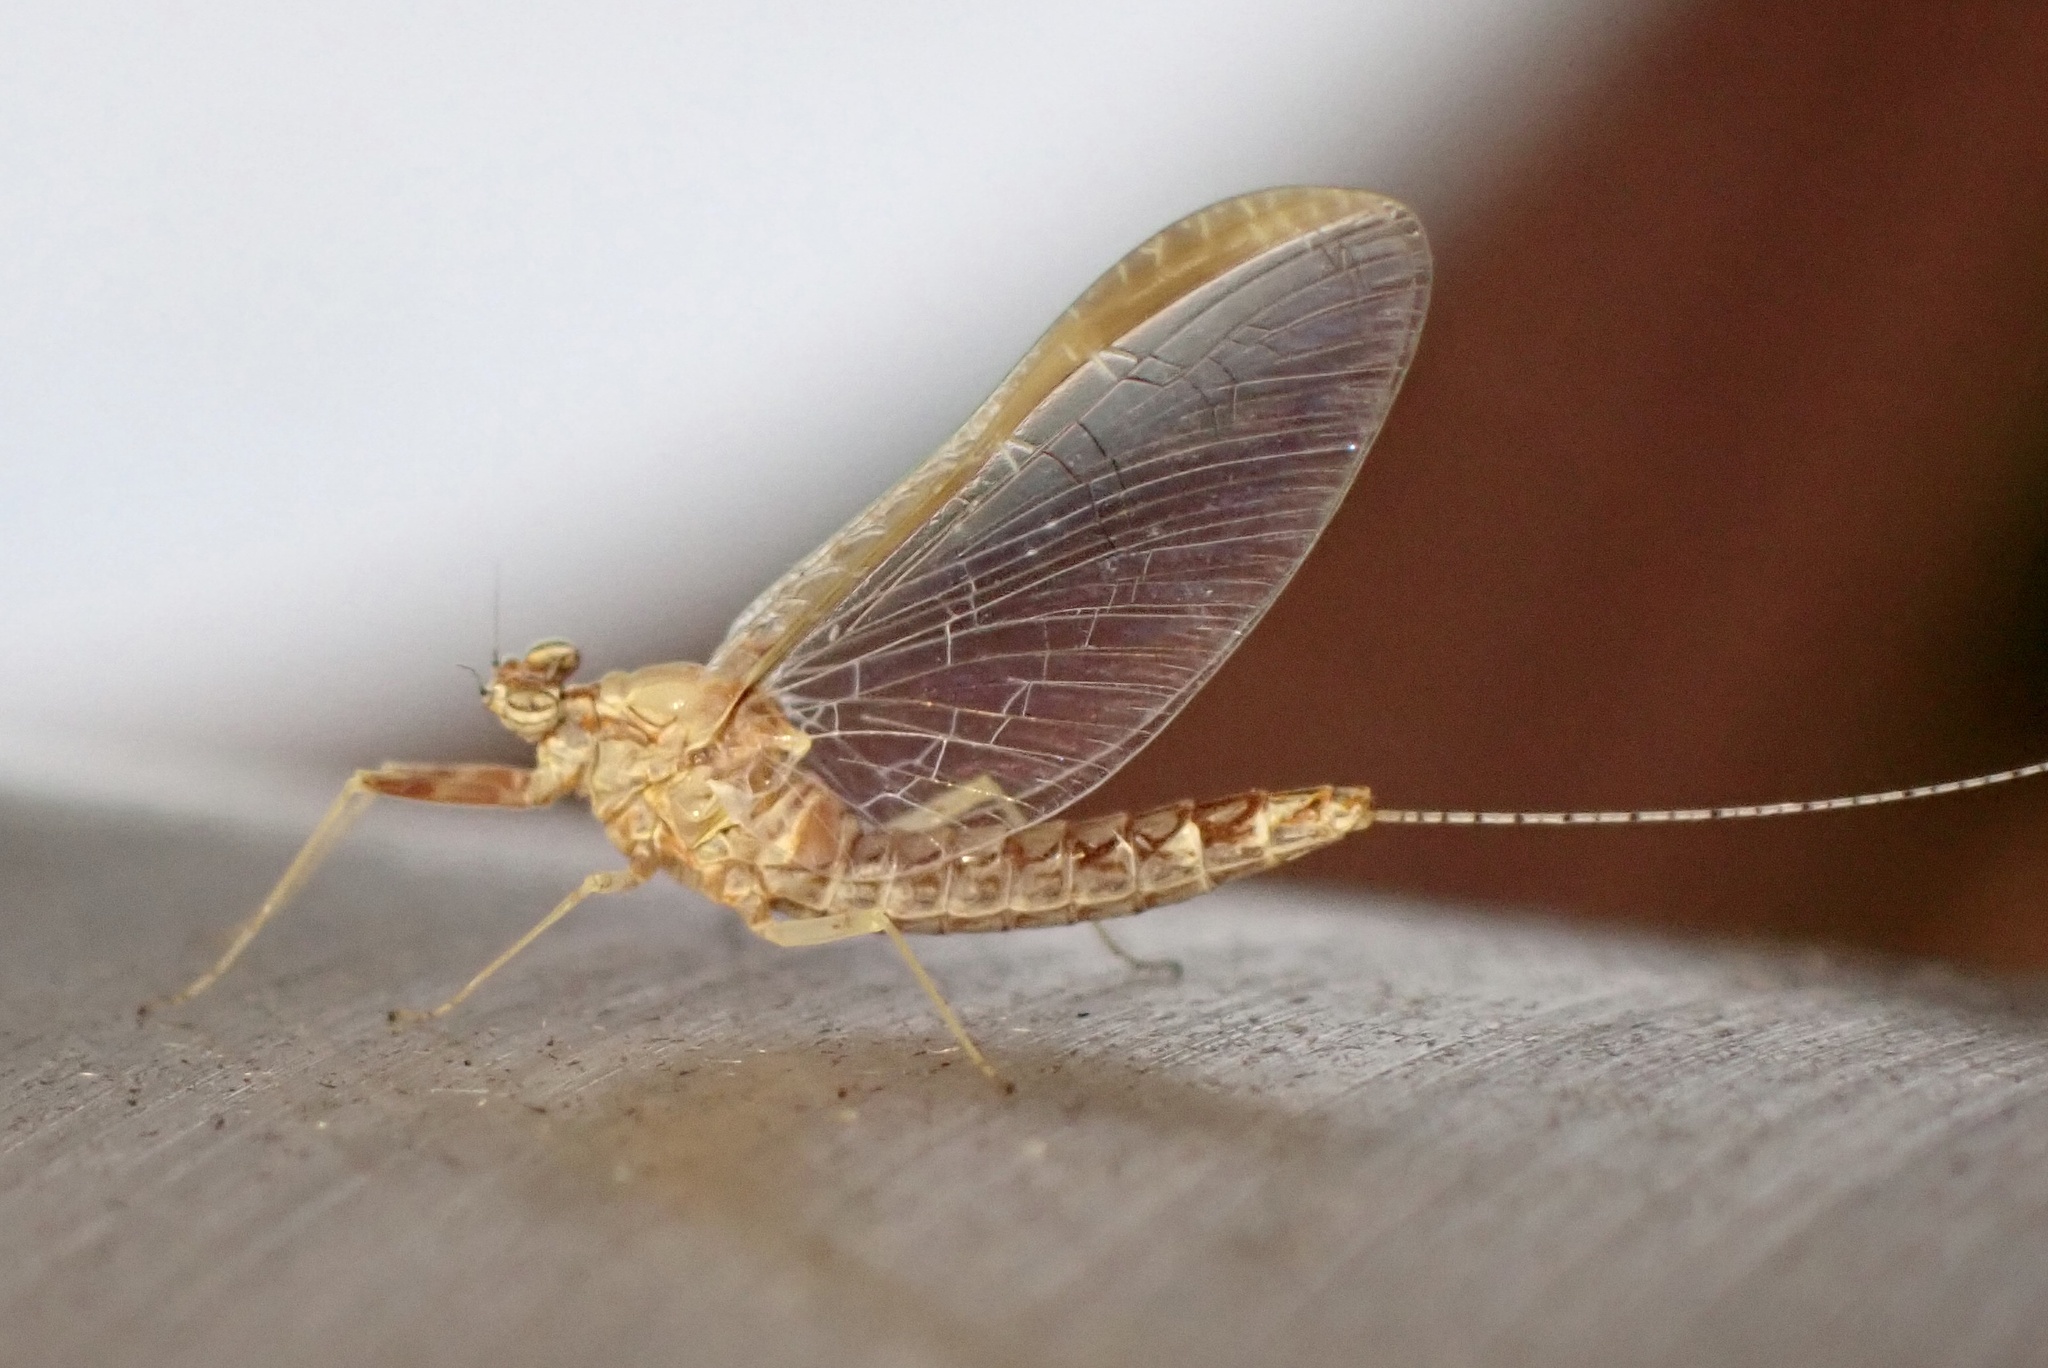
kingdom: Animalia
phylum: Arthropoda
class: Insecta
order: Ephemeroptera
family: Baetidae
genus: Cloeon
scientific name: Cloeon dipterum
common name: Pond olive
